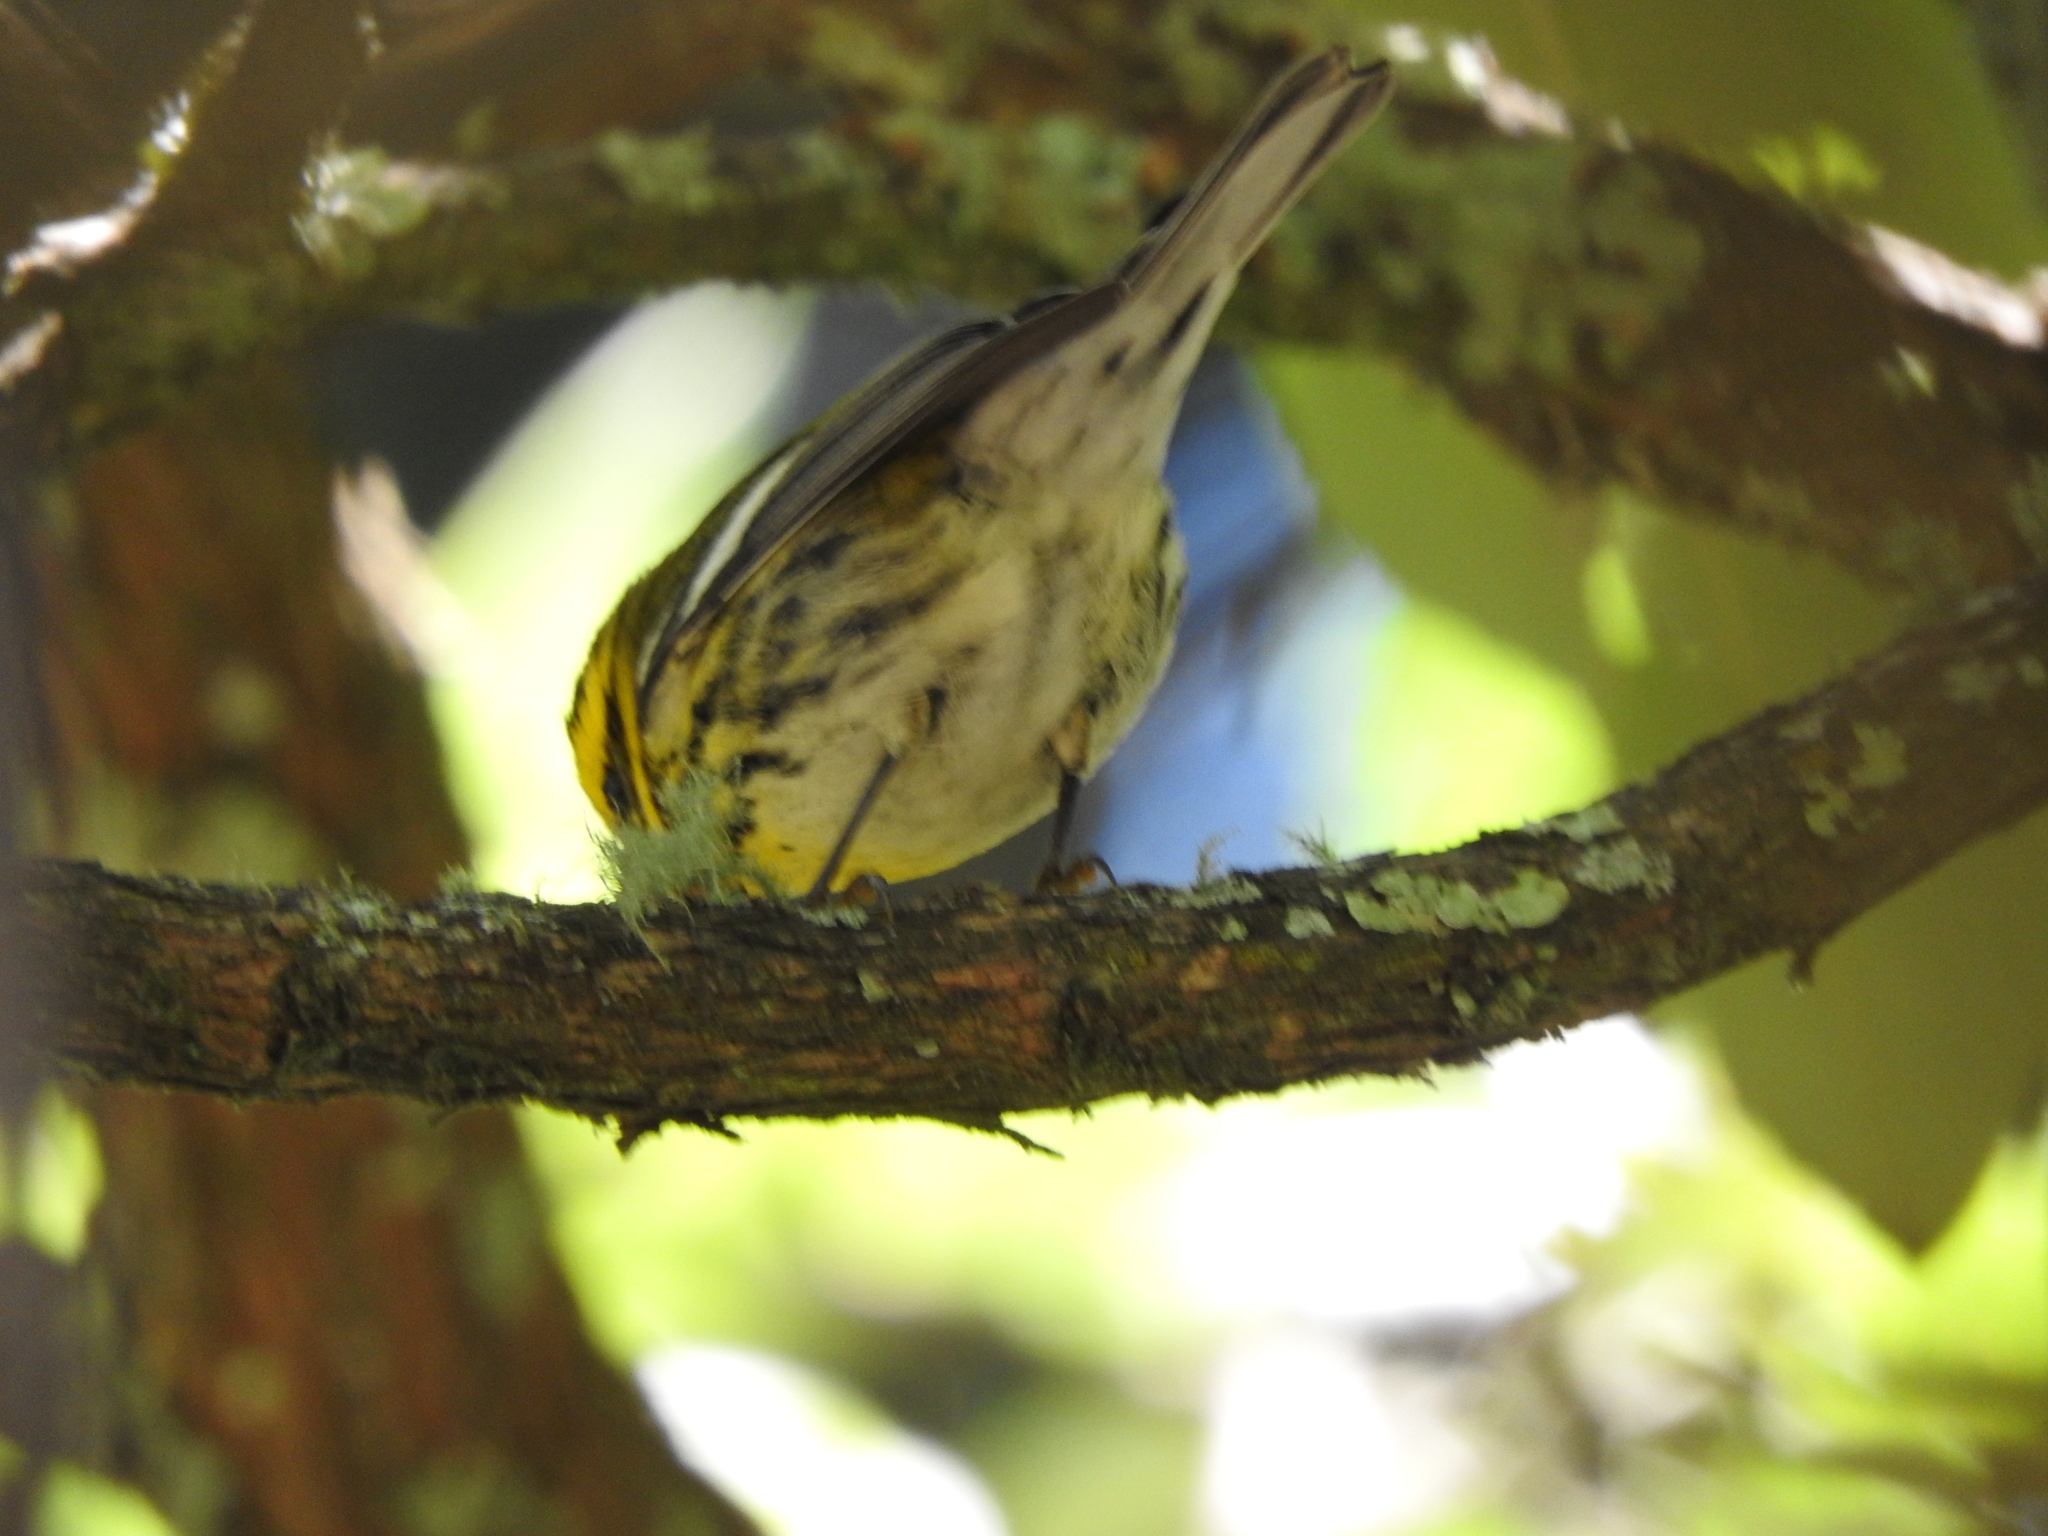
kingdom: Animalia
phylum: Chordata
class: Aves
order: Passeriformes
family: Parulidae
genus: Setophaga
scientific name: Setophaga townsendi
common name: Townsend's warbler
